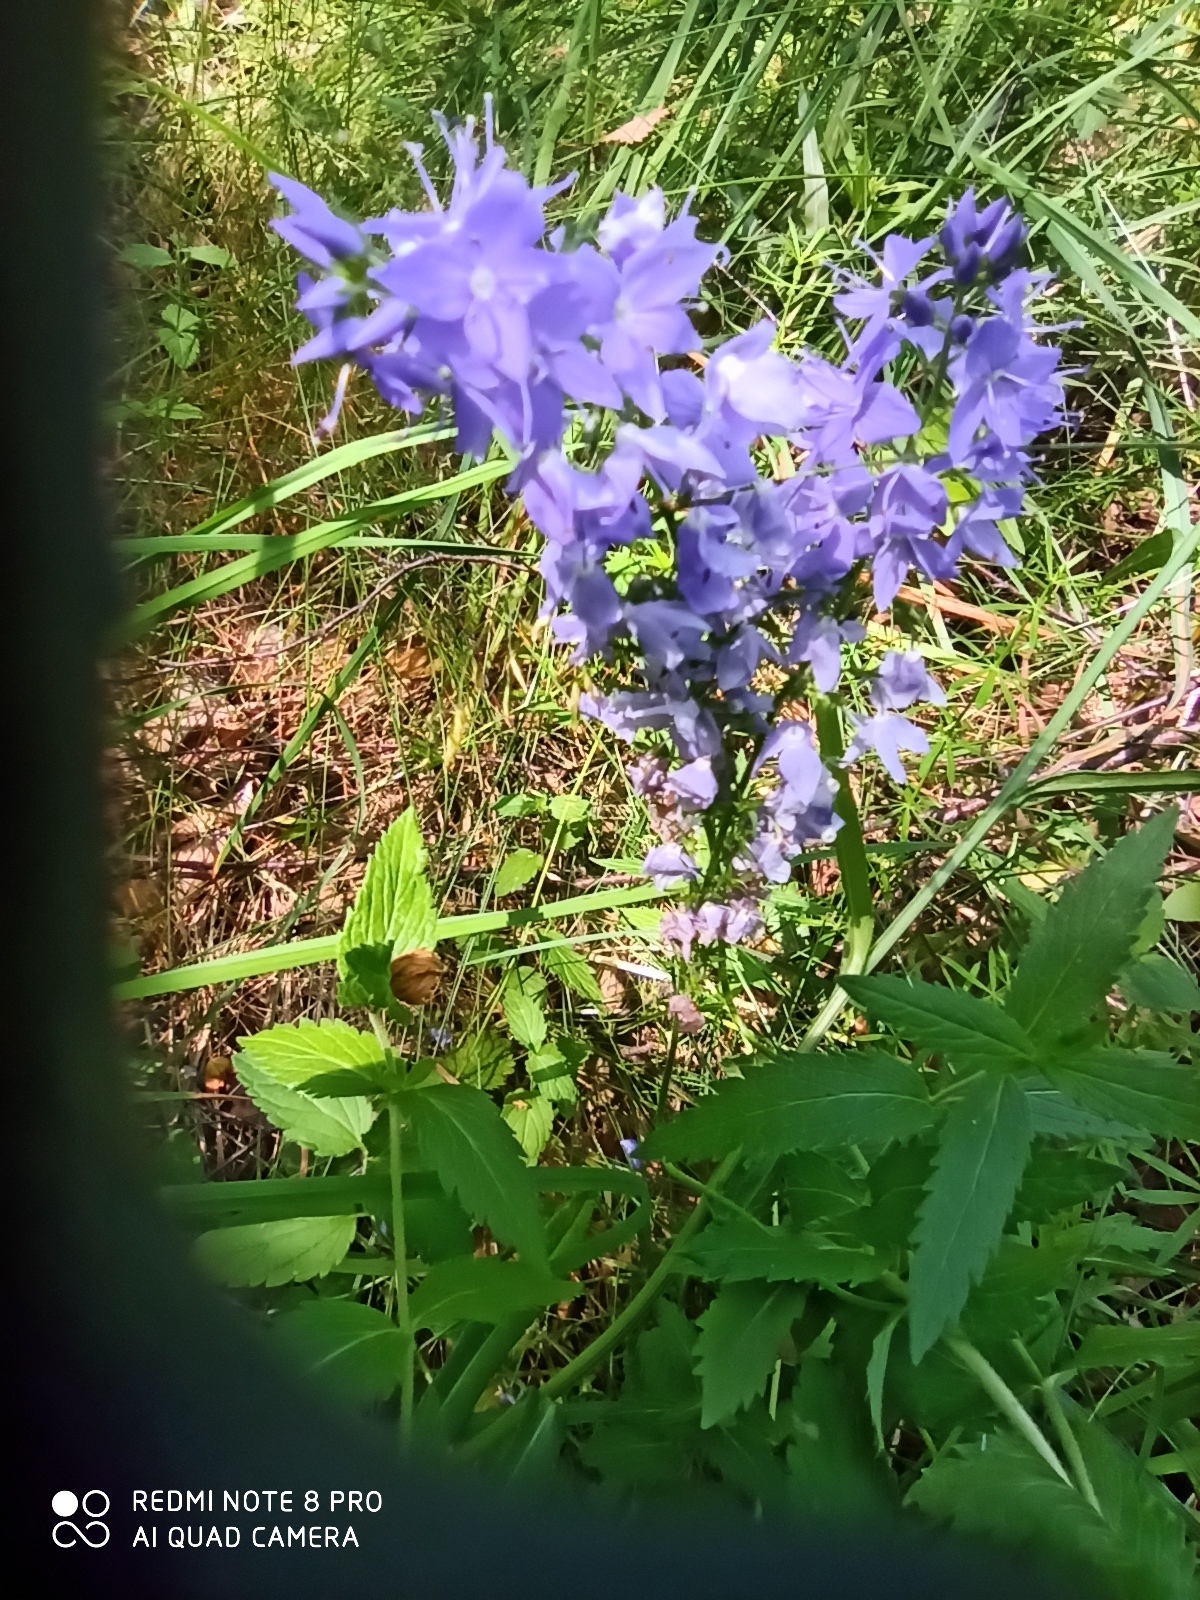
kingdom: Plantae
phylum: Tracheophyta
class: Magnoliopsida
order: Lamiales
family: Plantaginaceae
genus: Veronica
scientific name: Veronica teucrium
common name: Large speedwell
